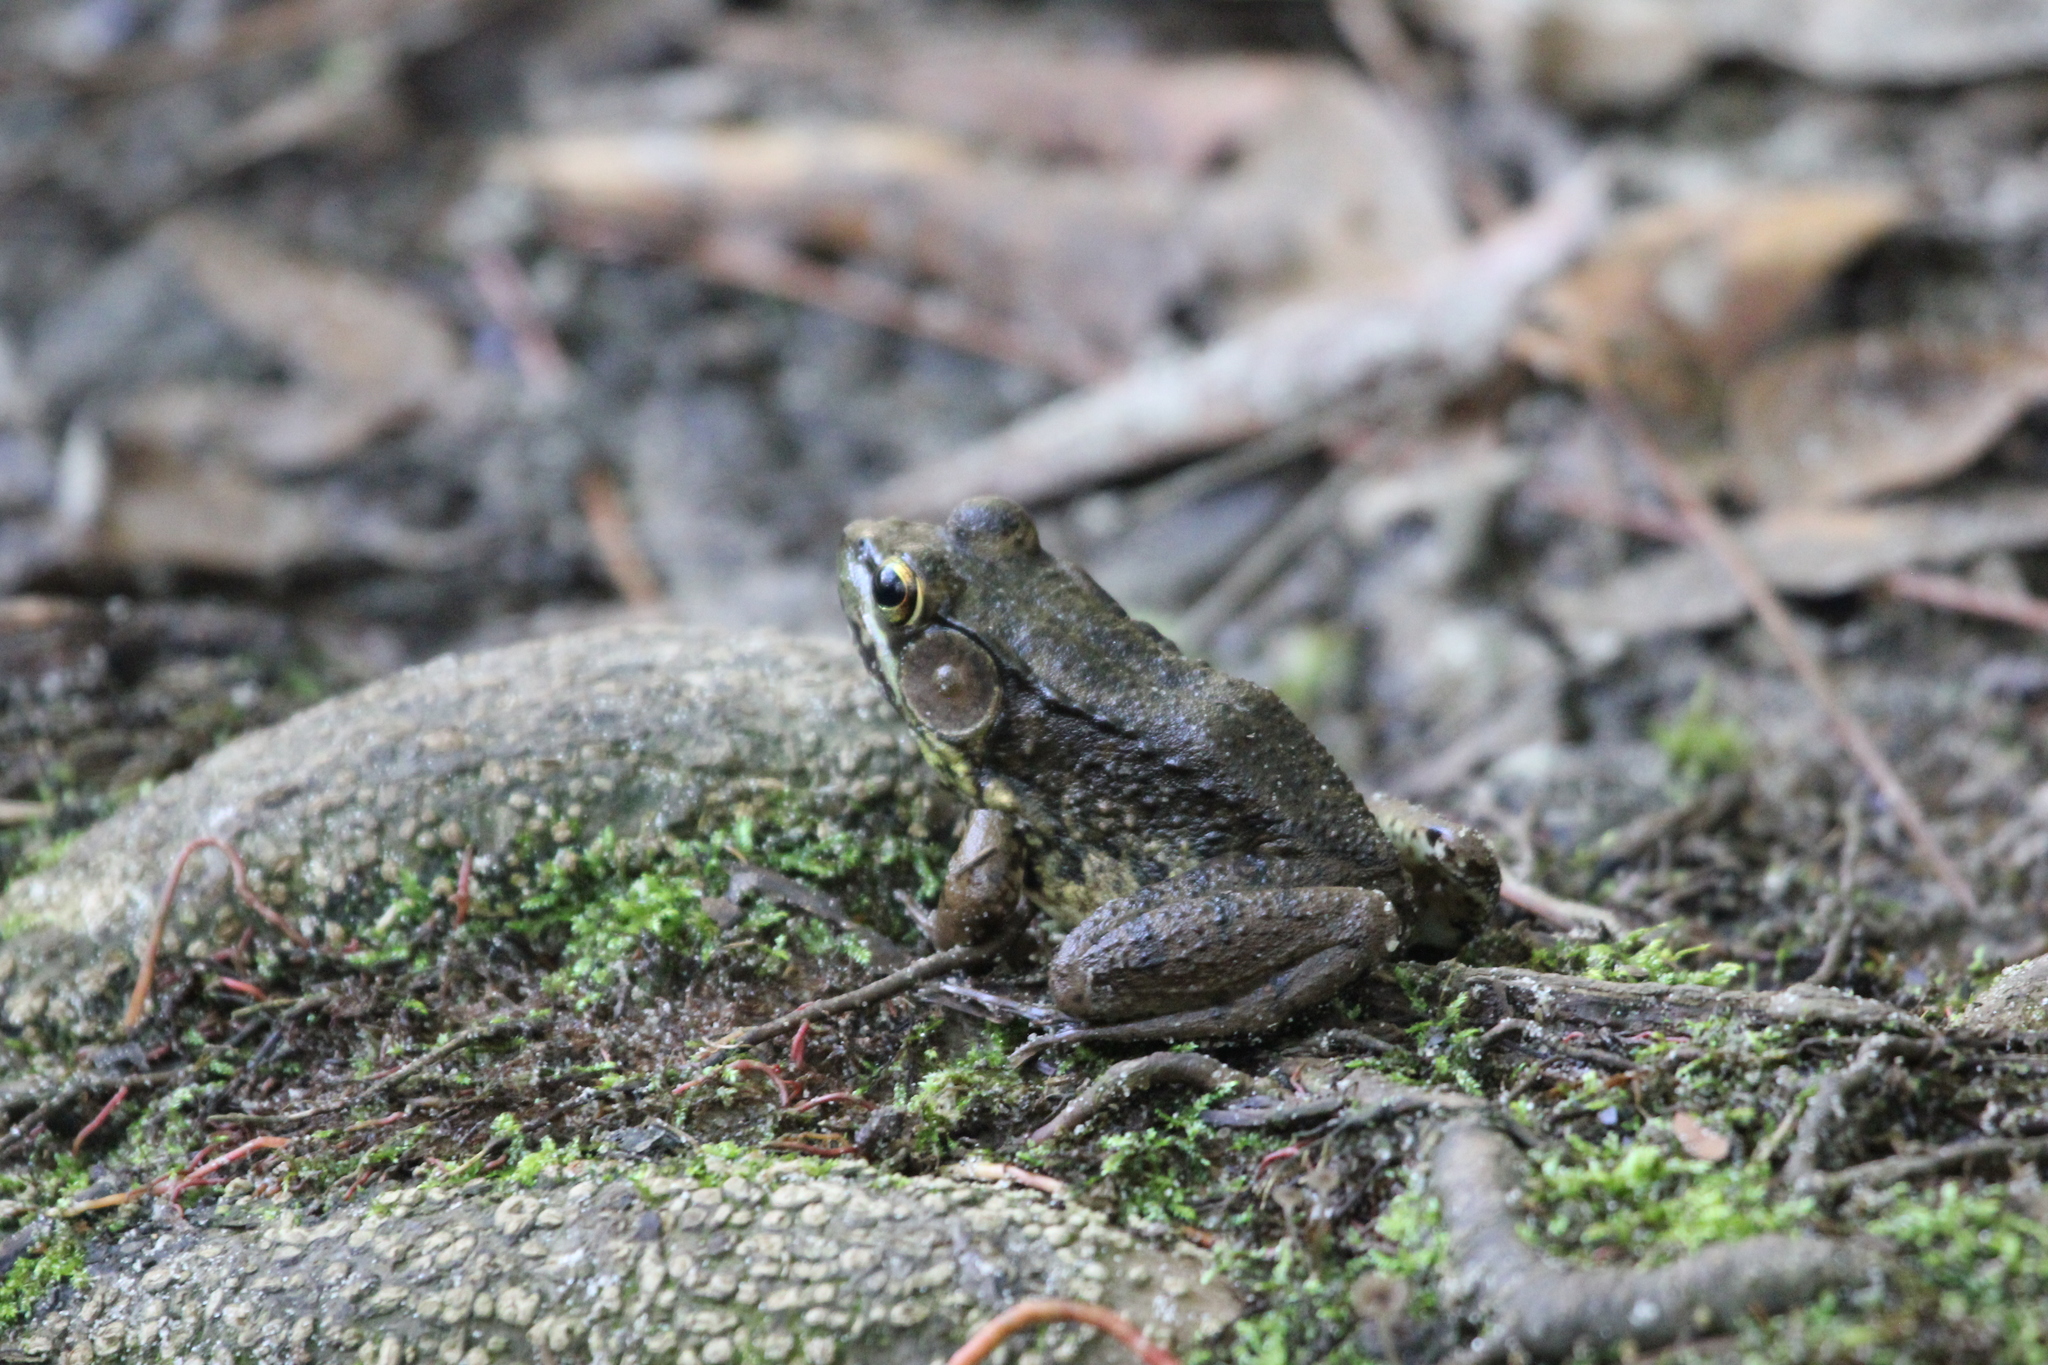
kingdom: Animalia
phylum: Chordata
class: Amphibia
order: Anura
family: Ranidae
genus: Lithobates
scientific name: Lithobates clamitans
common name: Green frog
